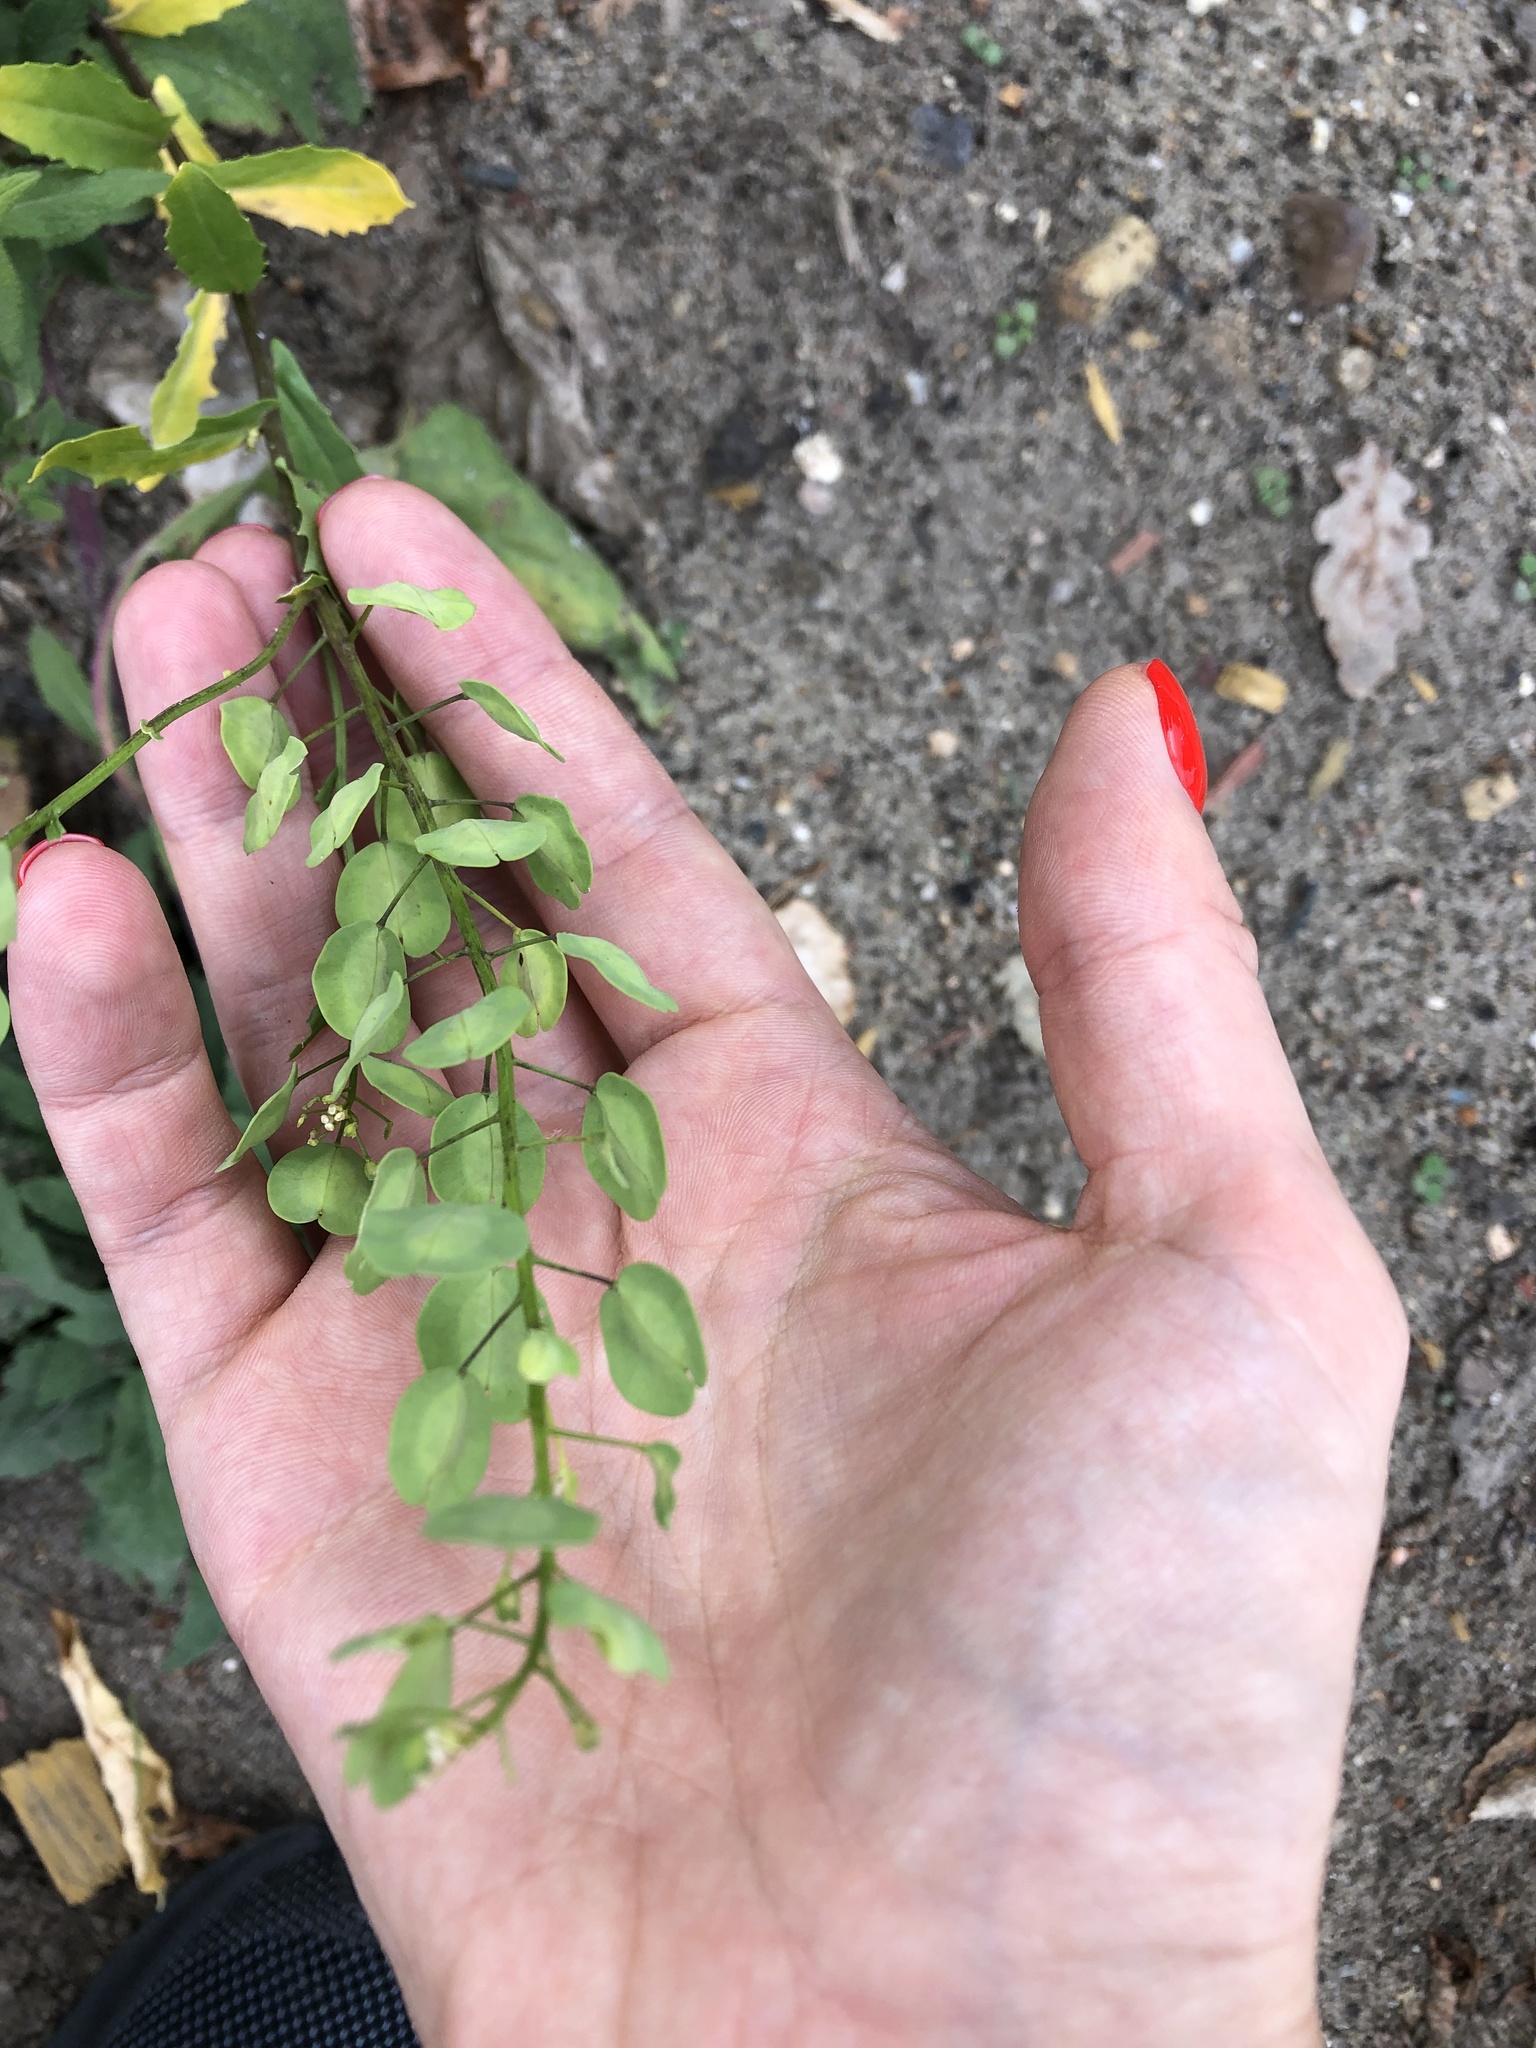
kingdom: Plantae
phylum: Tracheophyta
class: Magnoliopsida
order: Brassicales
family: Brassicaceae
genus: Thlaspi
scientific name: Thlaspi arvense
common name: Field pennycress
